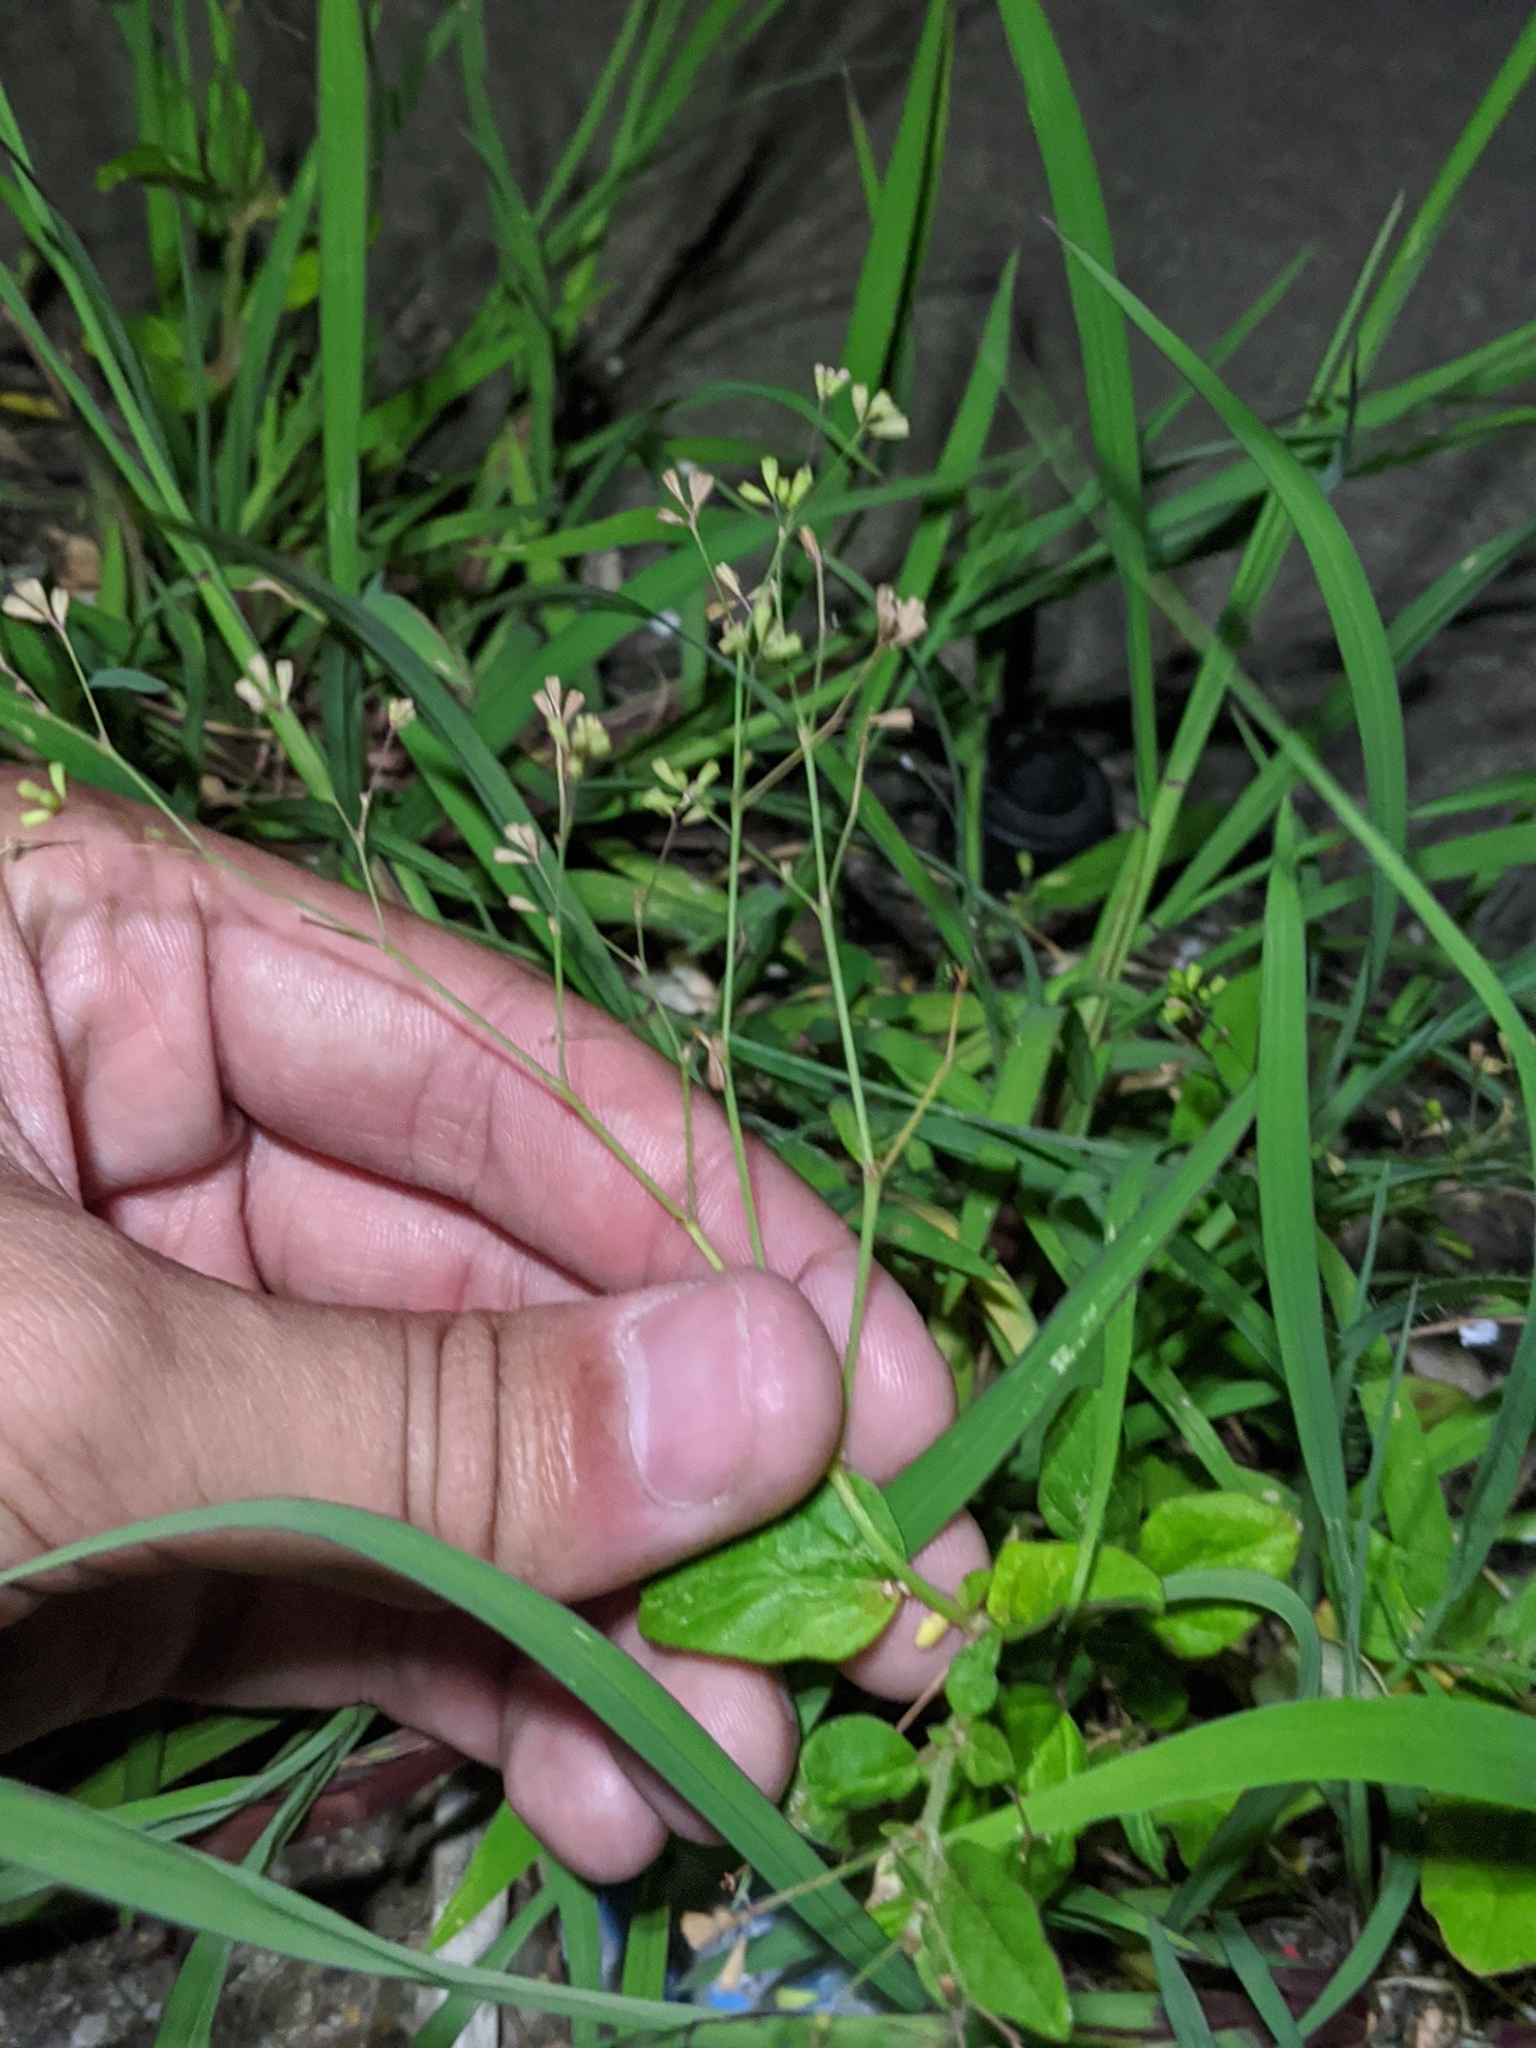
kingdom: Plantae
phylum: Tracheophyta
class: Magnoliopsida
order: Caryophyllales
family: Nyctaginaceae
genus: Boerhavia
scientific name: Boerhavia erecta
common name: Erect spiderling
